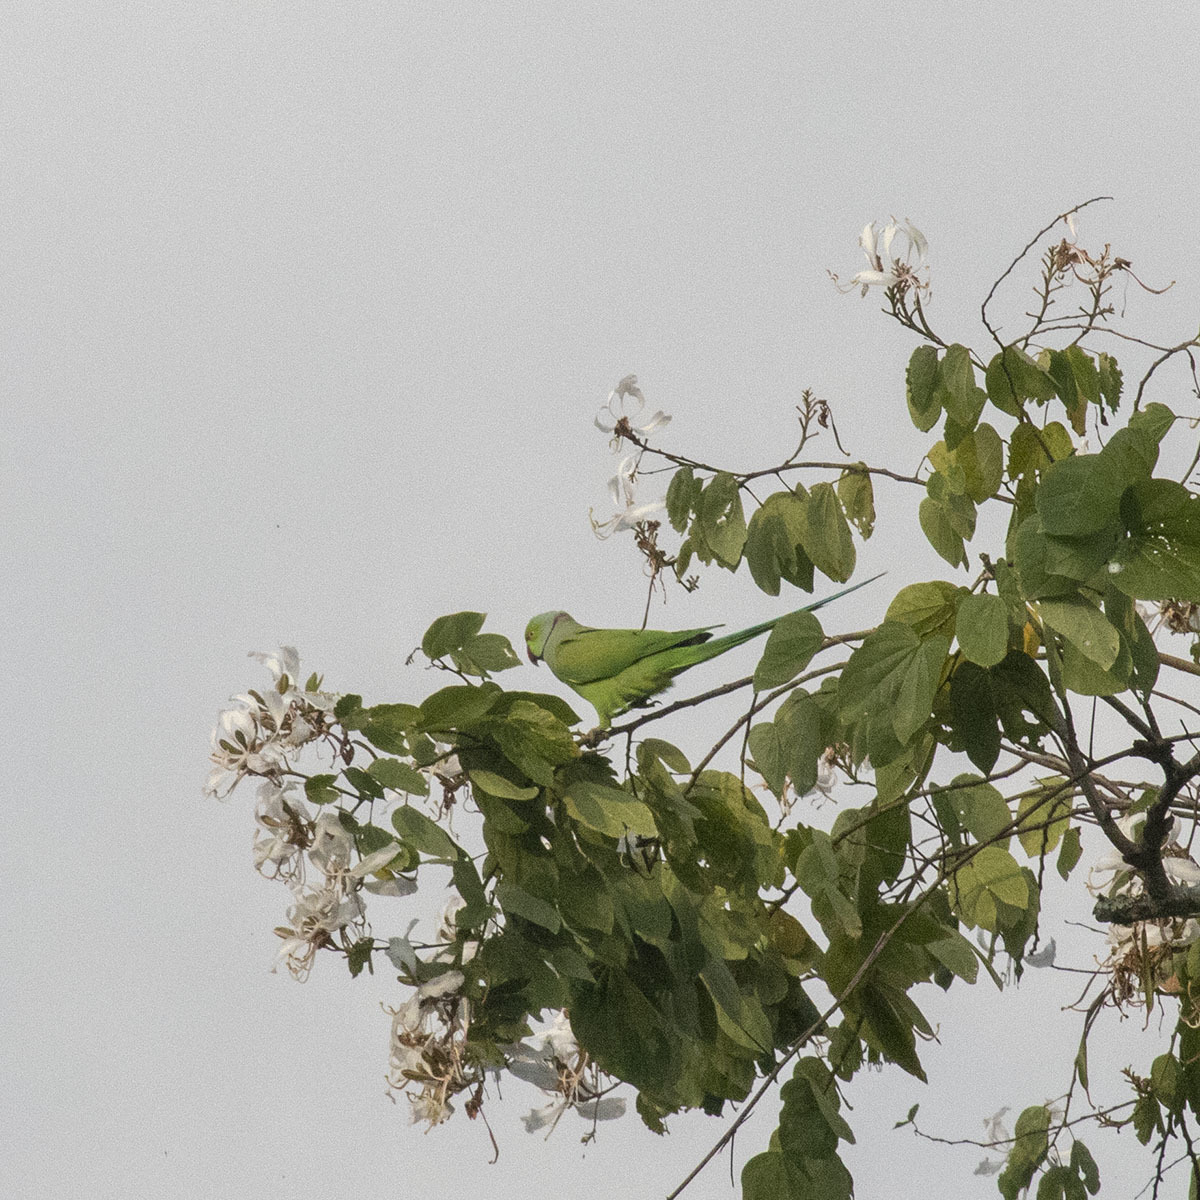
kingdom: Animalia
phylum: Chordata
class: Aves
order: Psittaciformes
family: Psittacidae
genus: Psittacula
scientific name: Psittacula krameri
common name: Rose-ringed parakeet
